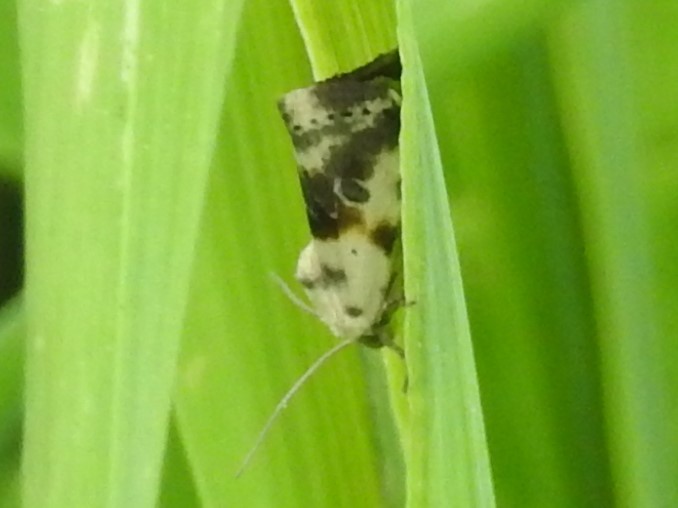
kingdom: Animalia
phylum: Arthropoda
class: Insecta
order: Lepidoptera
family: Noctuidae
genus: Acontia
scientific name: Acontia aprica
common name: Nun
